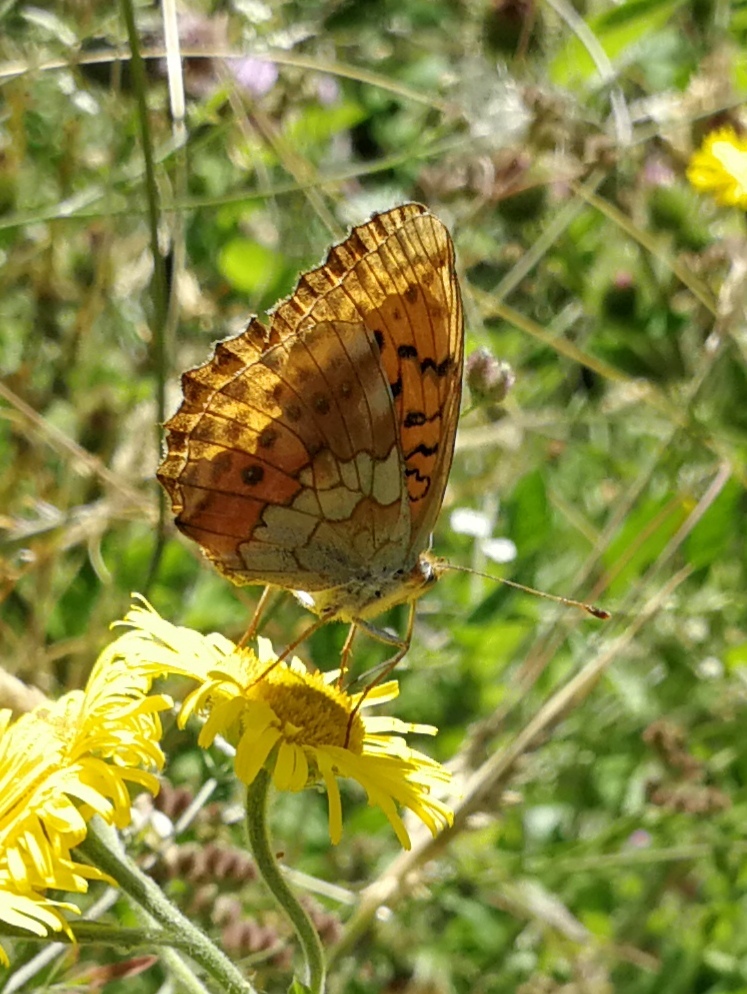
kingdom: Animalia
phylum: Arthropoda
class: Insecta
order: Lepidoptera
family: Nymphalidae
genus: Brenthis
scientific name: Brenthis daphne
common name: Marbled fritillary
